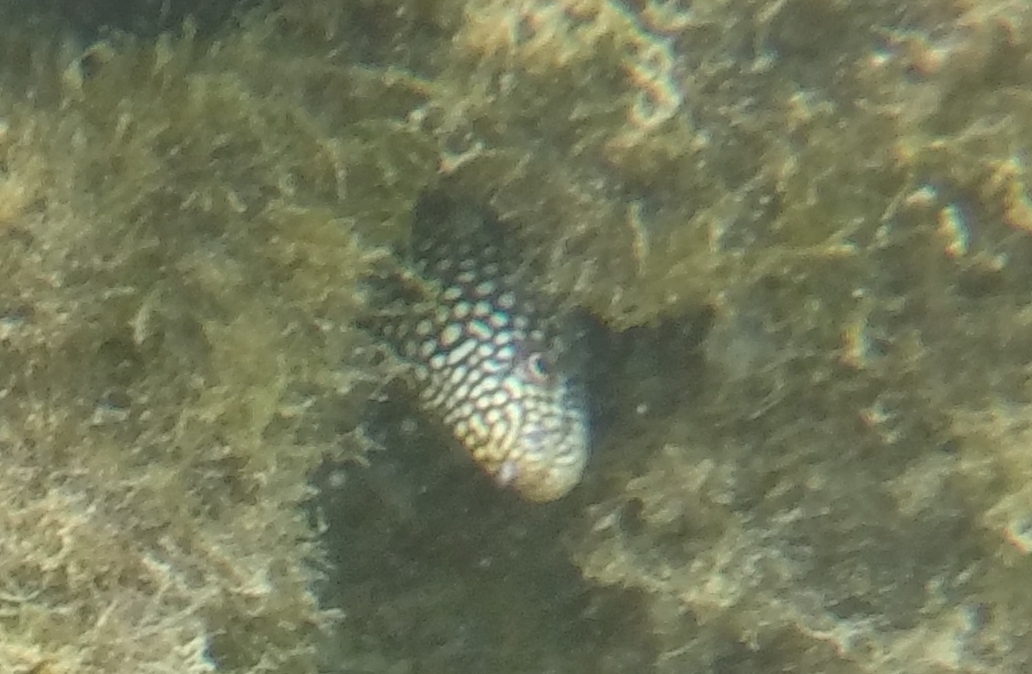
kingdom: Animalia
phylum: Chordata
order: Anguilliformes
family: Muraenidae
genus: Gymnothorax
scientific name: Gymnothorax meleagris
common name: Guineafowl moray
